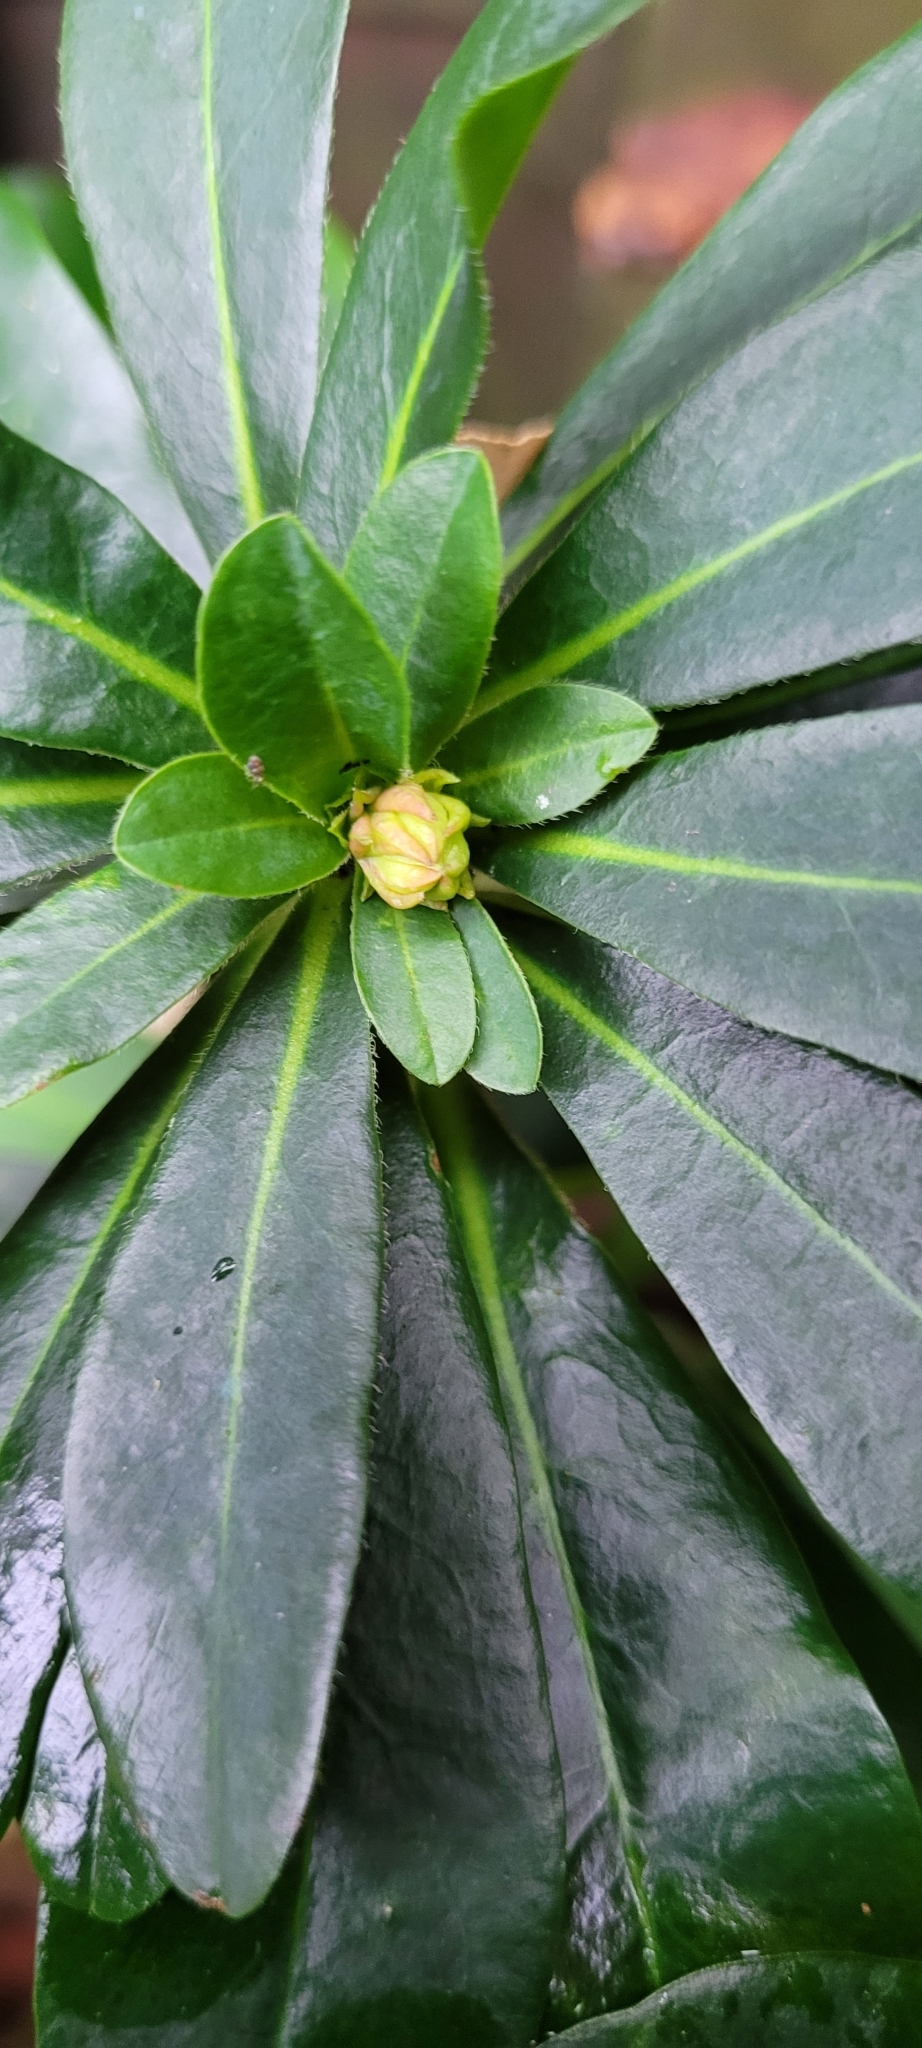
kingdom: Plantae
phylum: Tracheophyta
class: Magnoliopsida
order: Malpighiales
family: Euphorbiaceae
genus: Euphorbia
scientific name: Euphorbia amygdaloides
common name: Wood spurge
